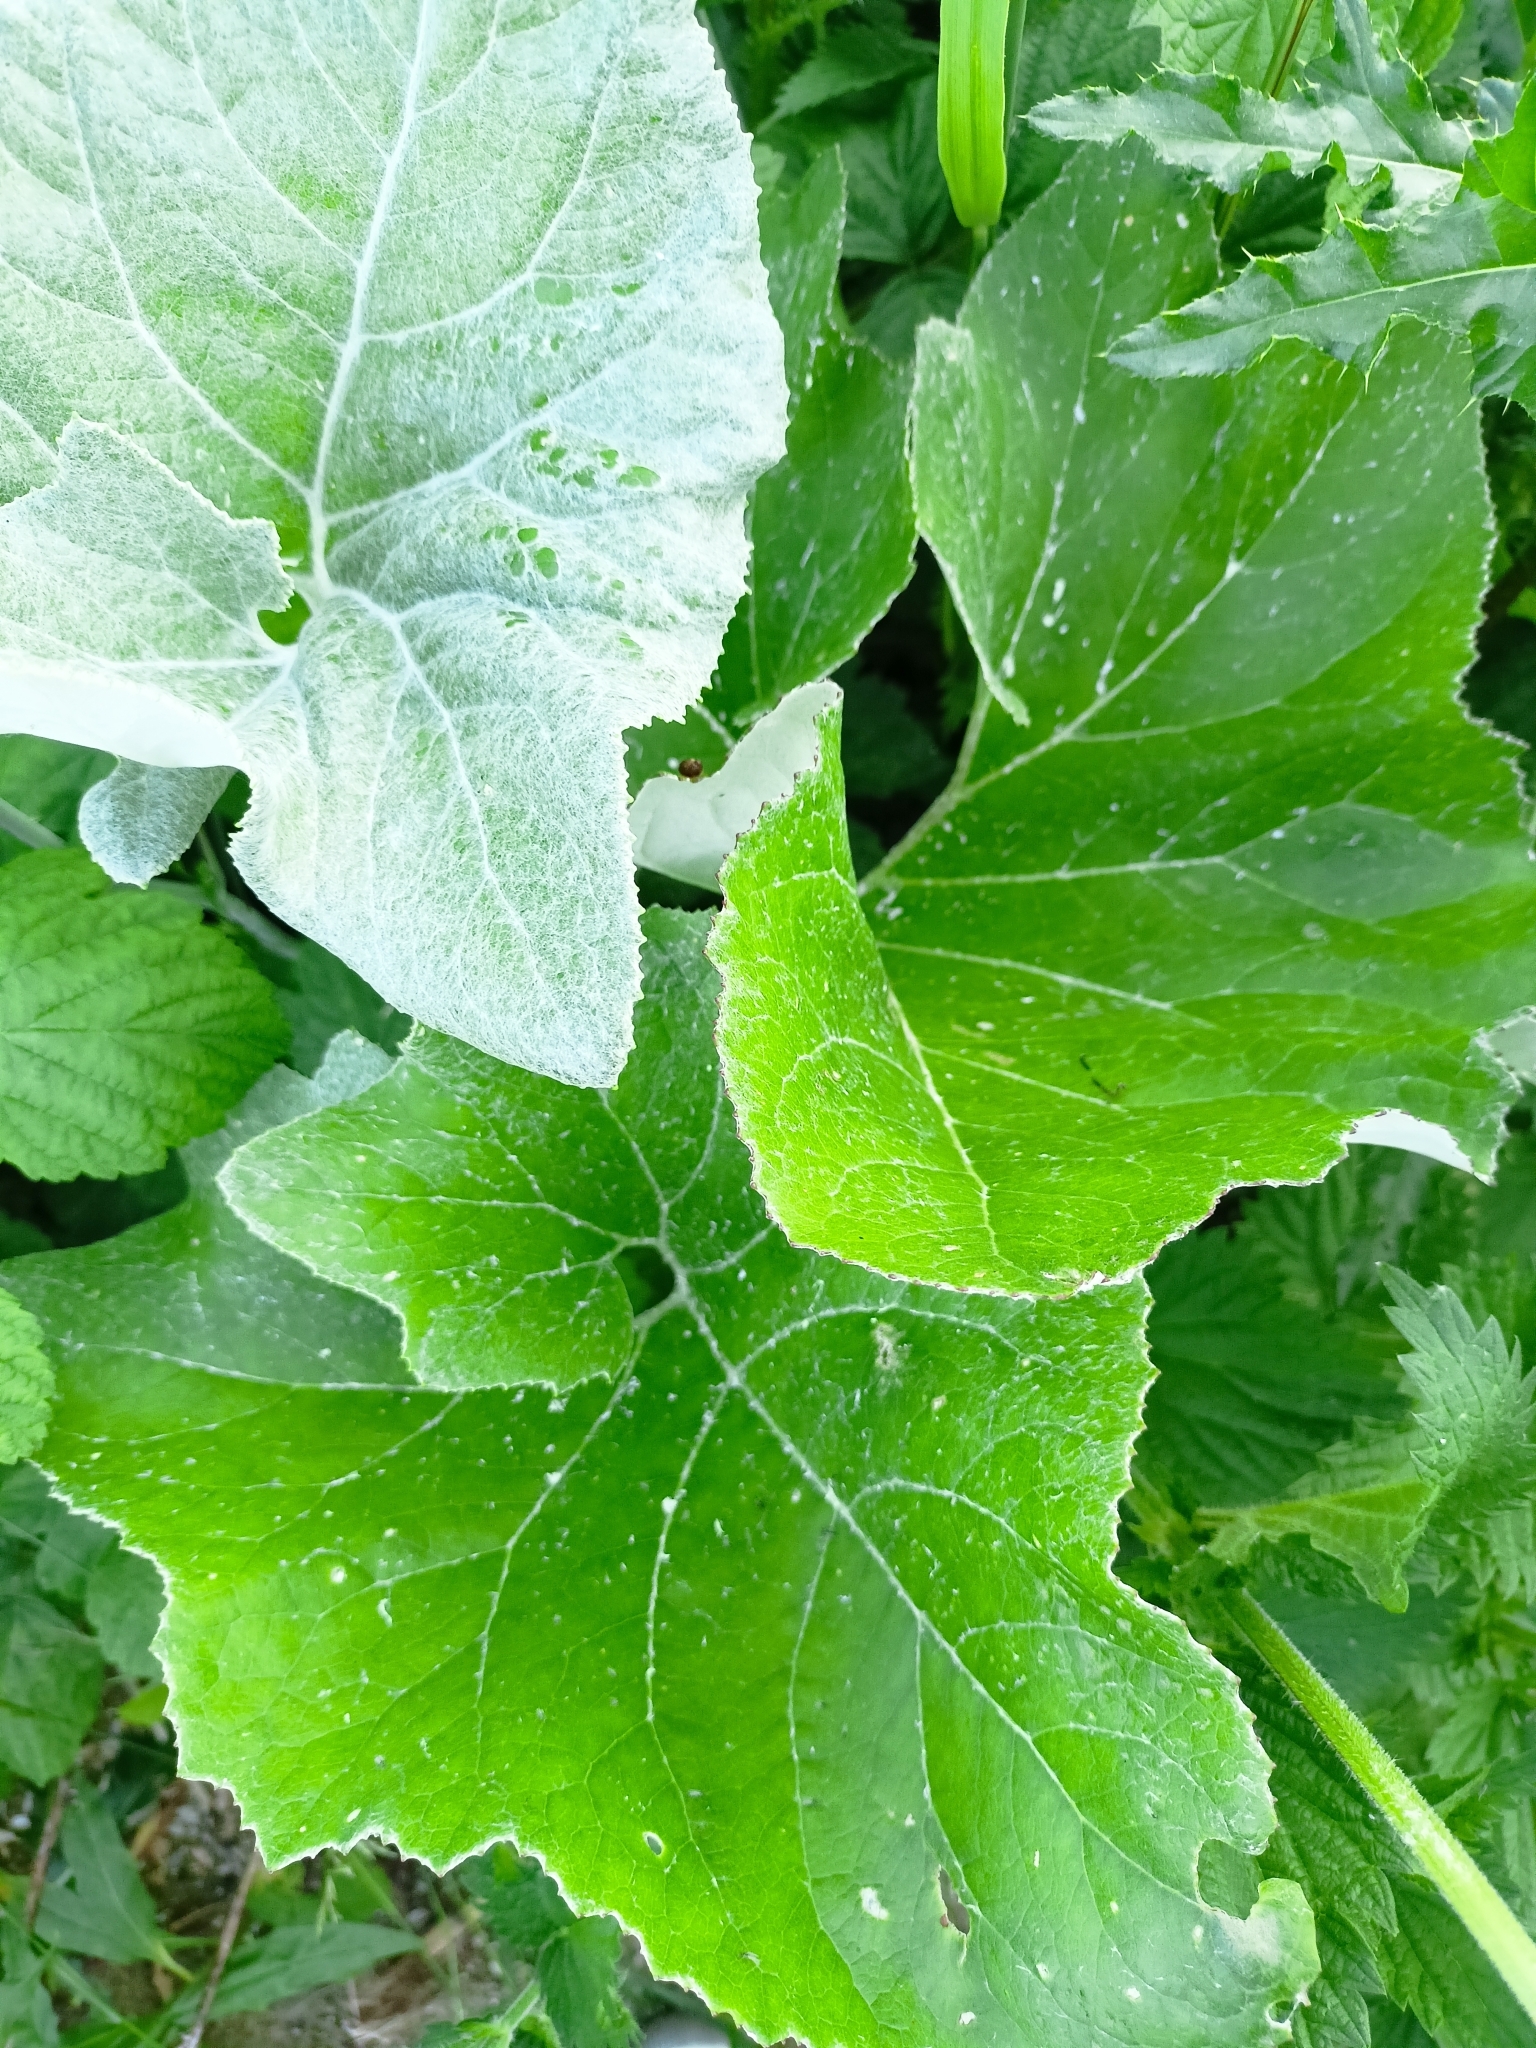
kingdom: Plantae
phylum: Tracheophyta
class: Magnoliopsida
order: Asterales
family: Asteraceae
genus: Petasites
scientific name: Petasites spurius
